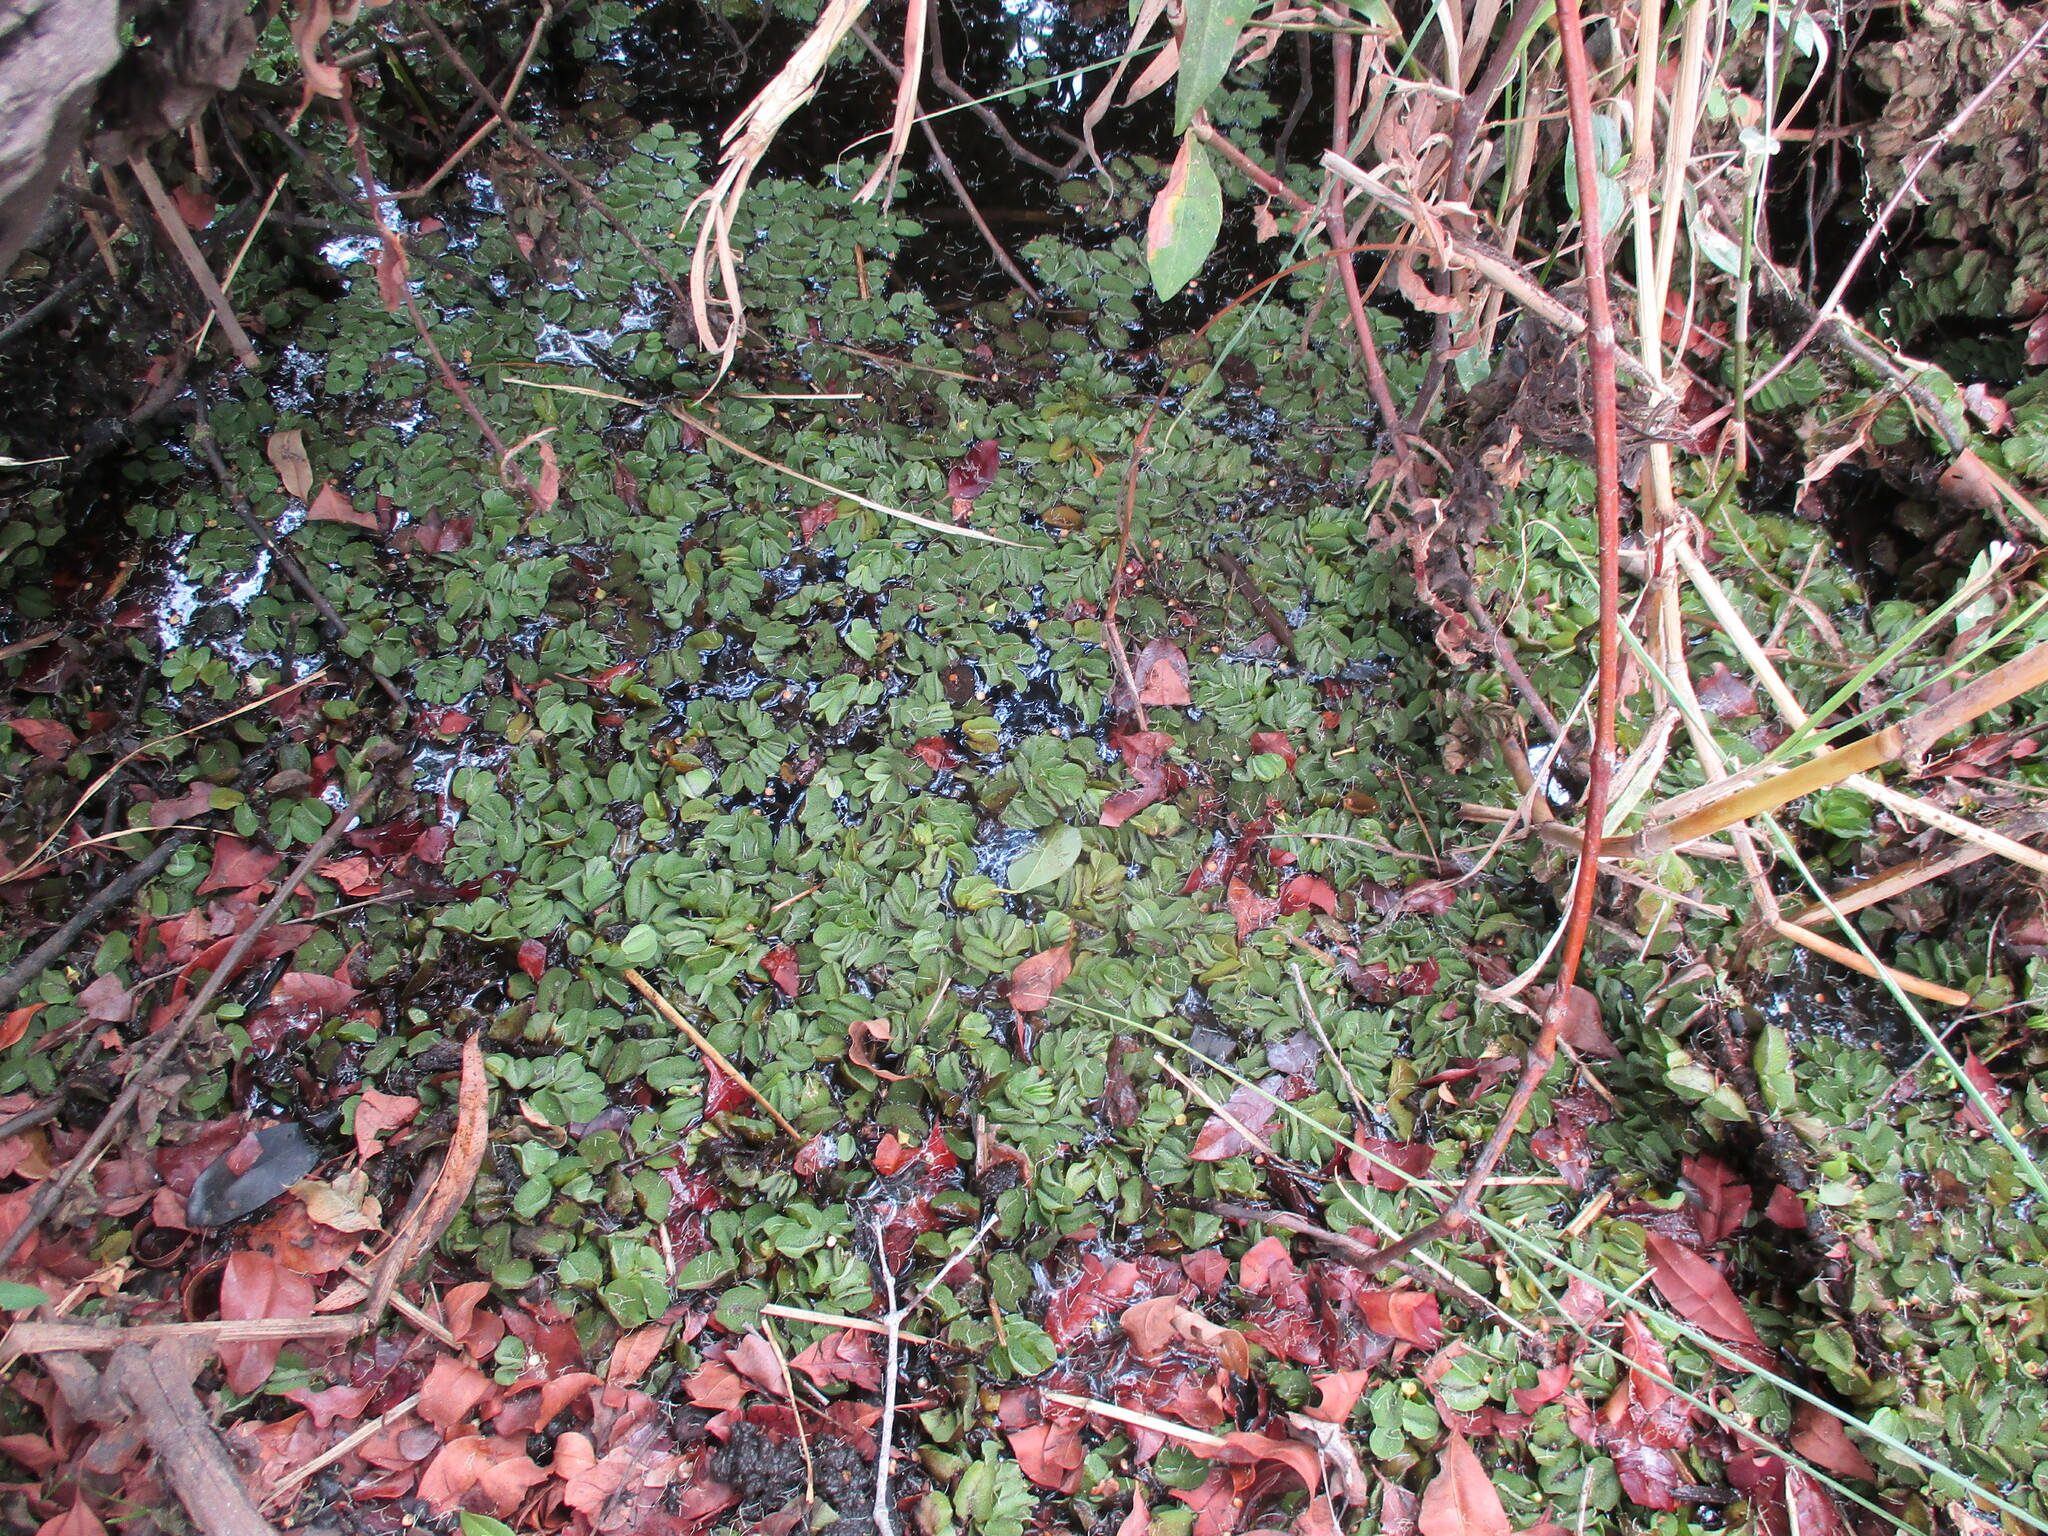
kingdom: Plantae
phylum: Tracheophyta
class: Polypodiopsida
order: Salviniales
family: Salviniaceae
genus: Salvinia
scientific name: Salvinia molesta
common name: Kariba weed
